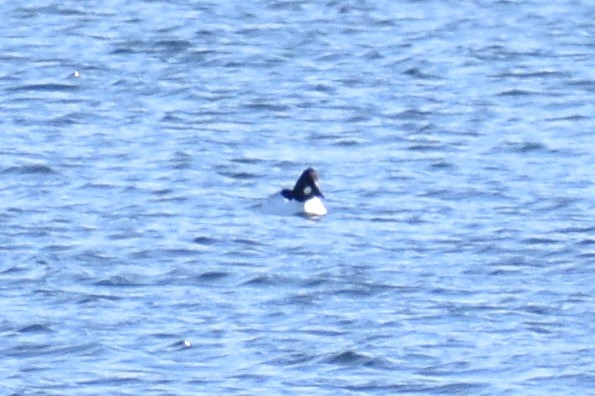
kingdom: Animalia
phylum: Chordata
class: Aves
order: Anseriformes
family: Anatidae
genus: Bucephala
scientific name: Bucephala clangula
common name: Common goldeneye
